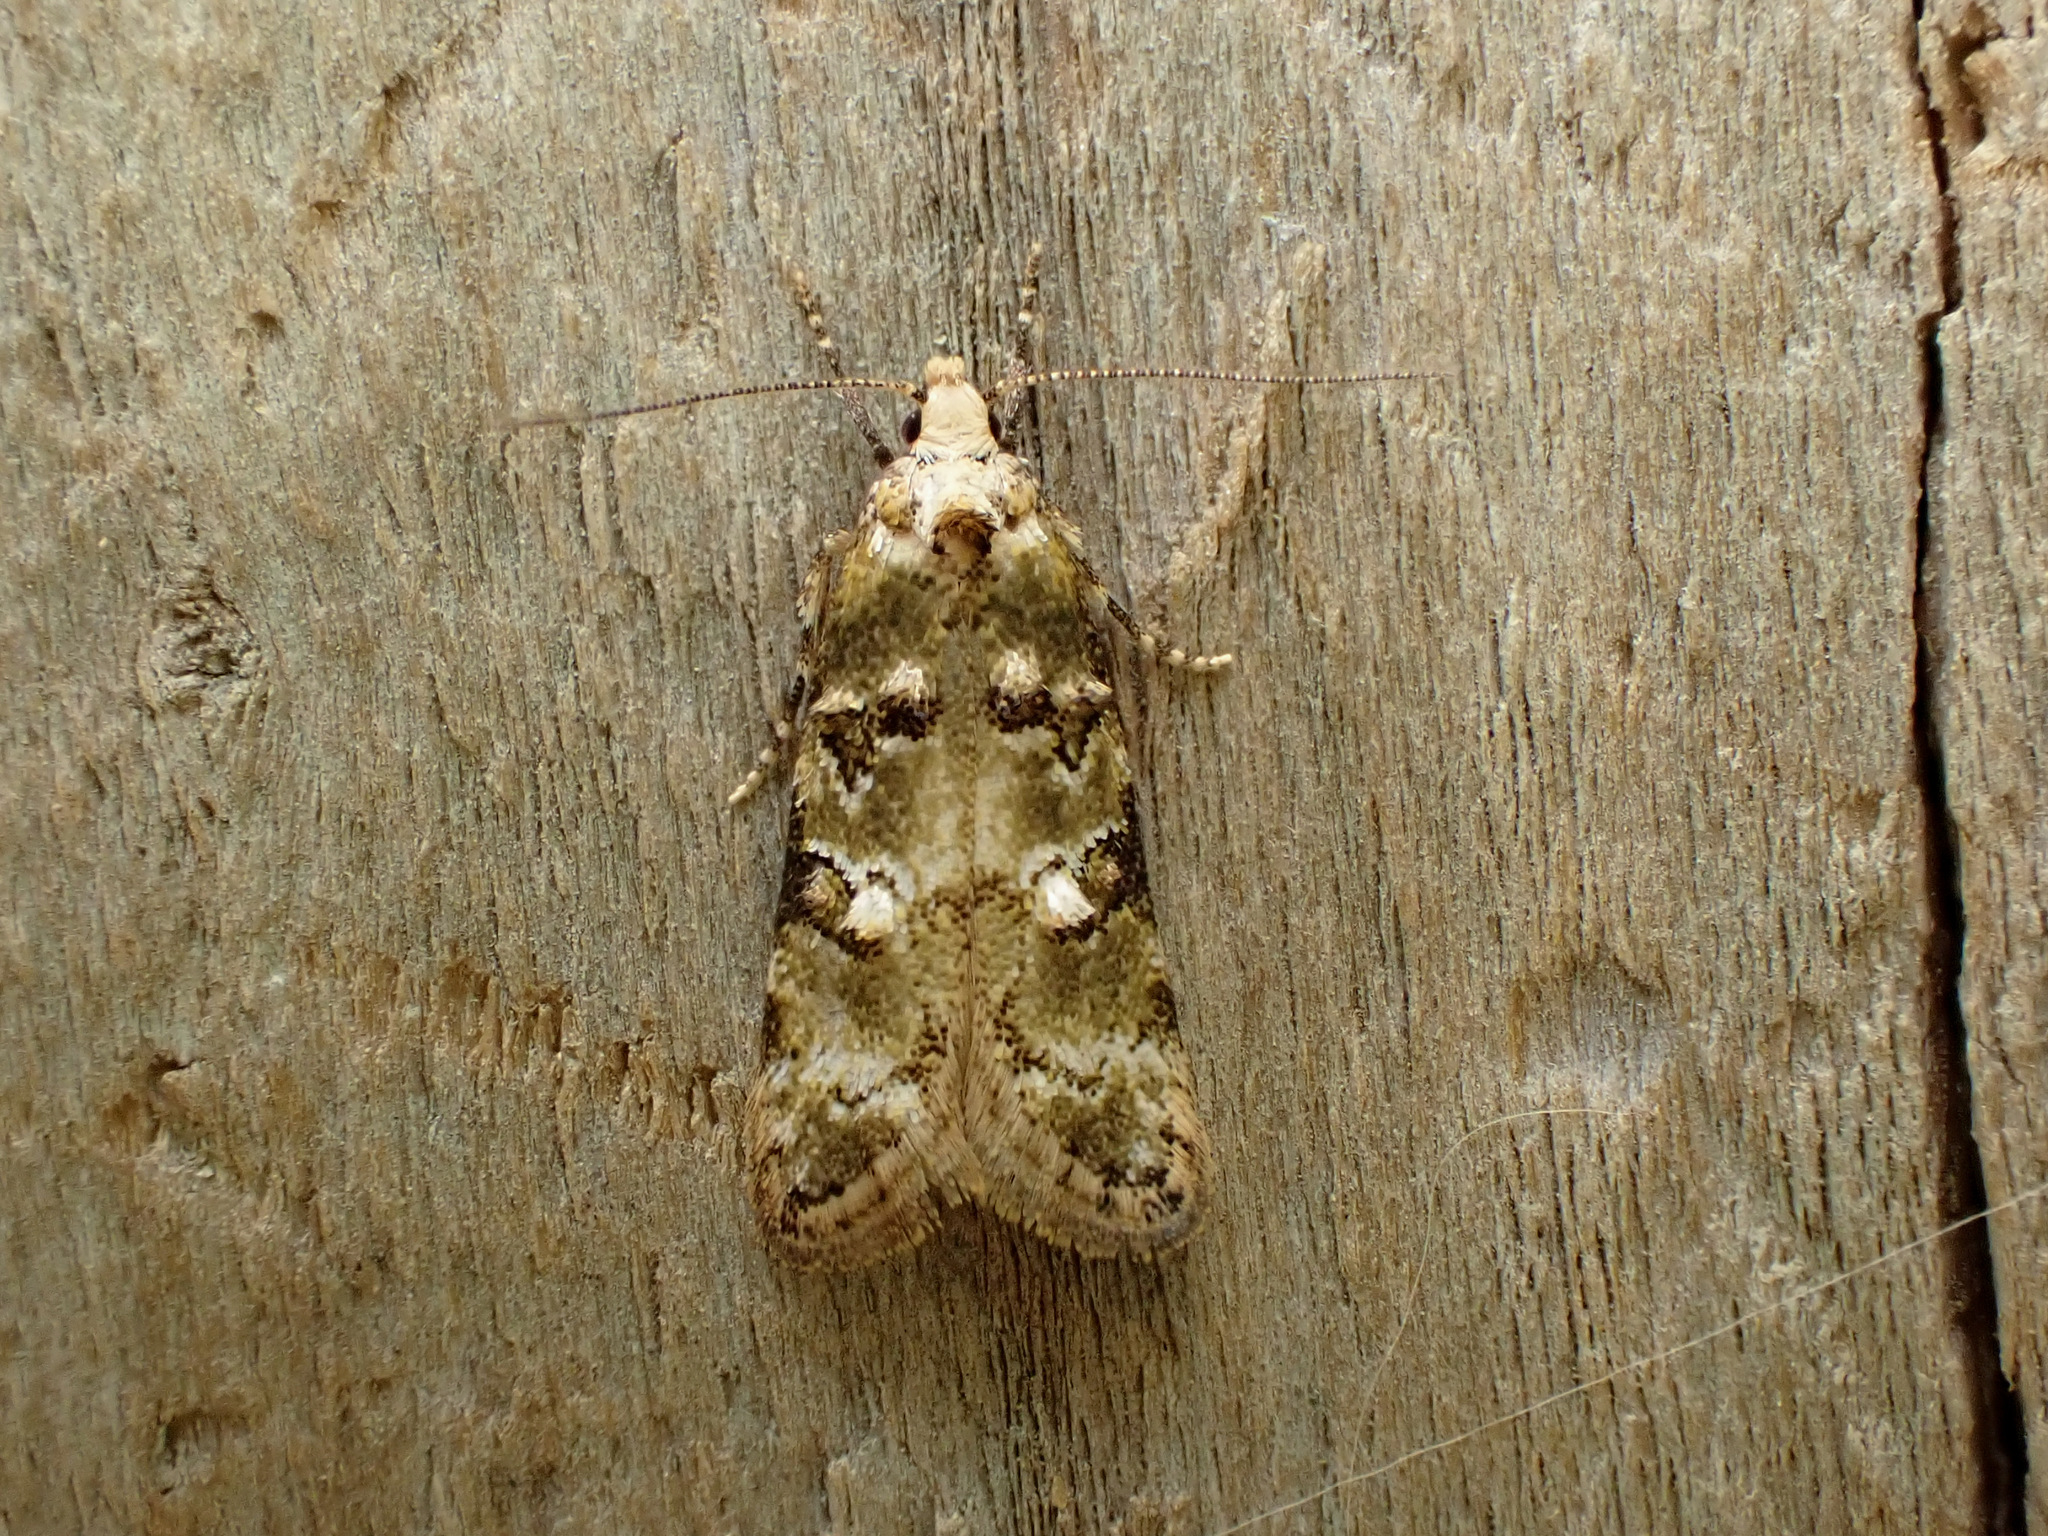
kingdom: Animalia
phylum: Arthropoda
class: Insecta
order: Lepidoptera
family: Oecophoridae
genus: Trachypepla
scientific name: Trachypepla protochlora
